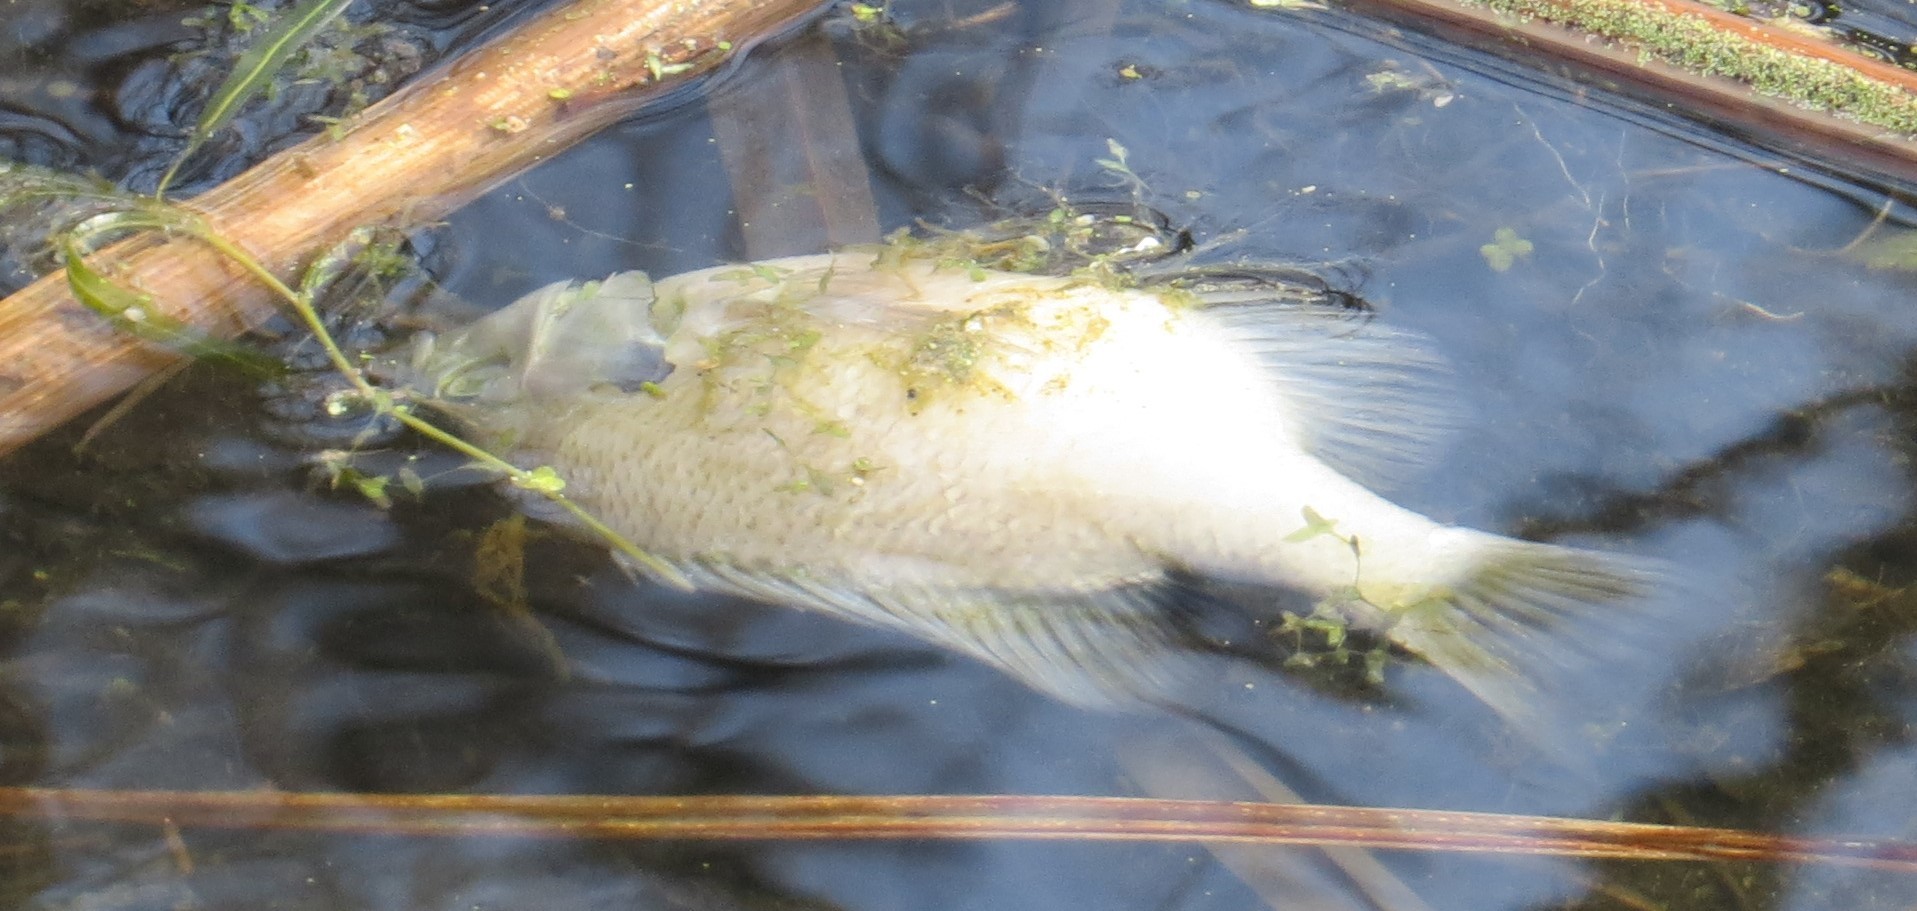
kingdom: Animalia
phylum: Chordata
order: Perciformes
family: Centrarchidae
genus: Lepomis
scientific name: Lepomis macrochirus
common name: Bluegill
